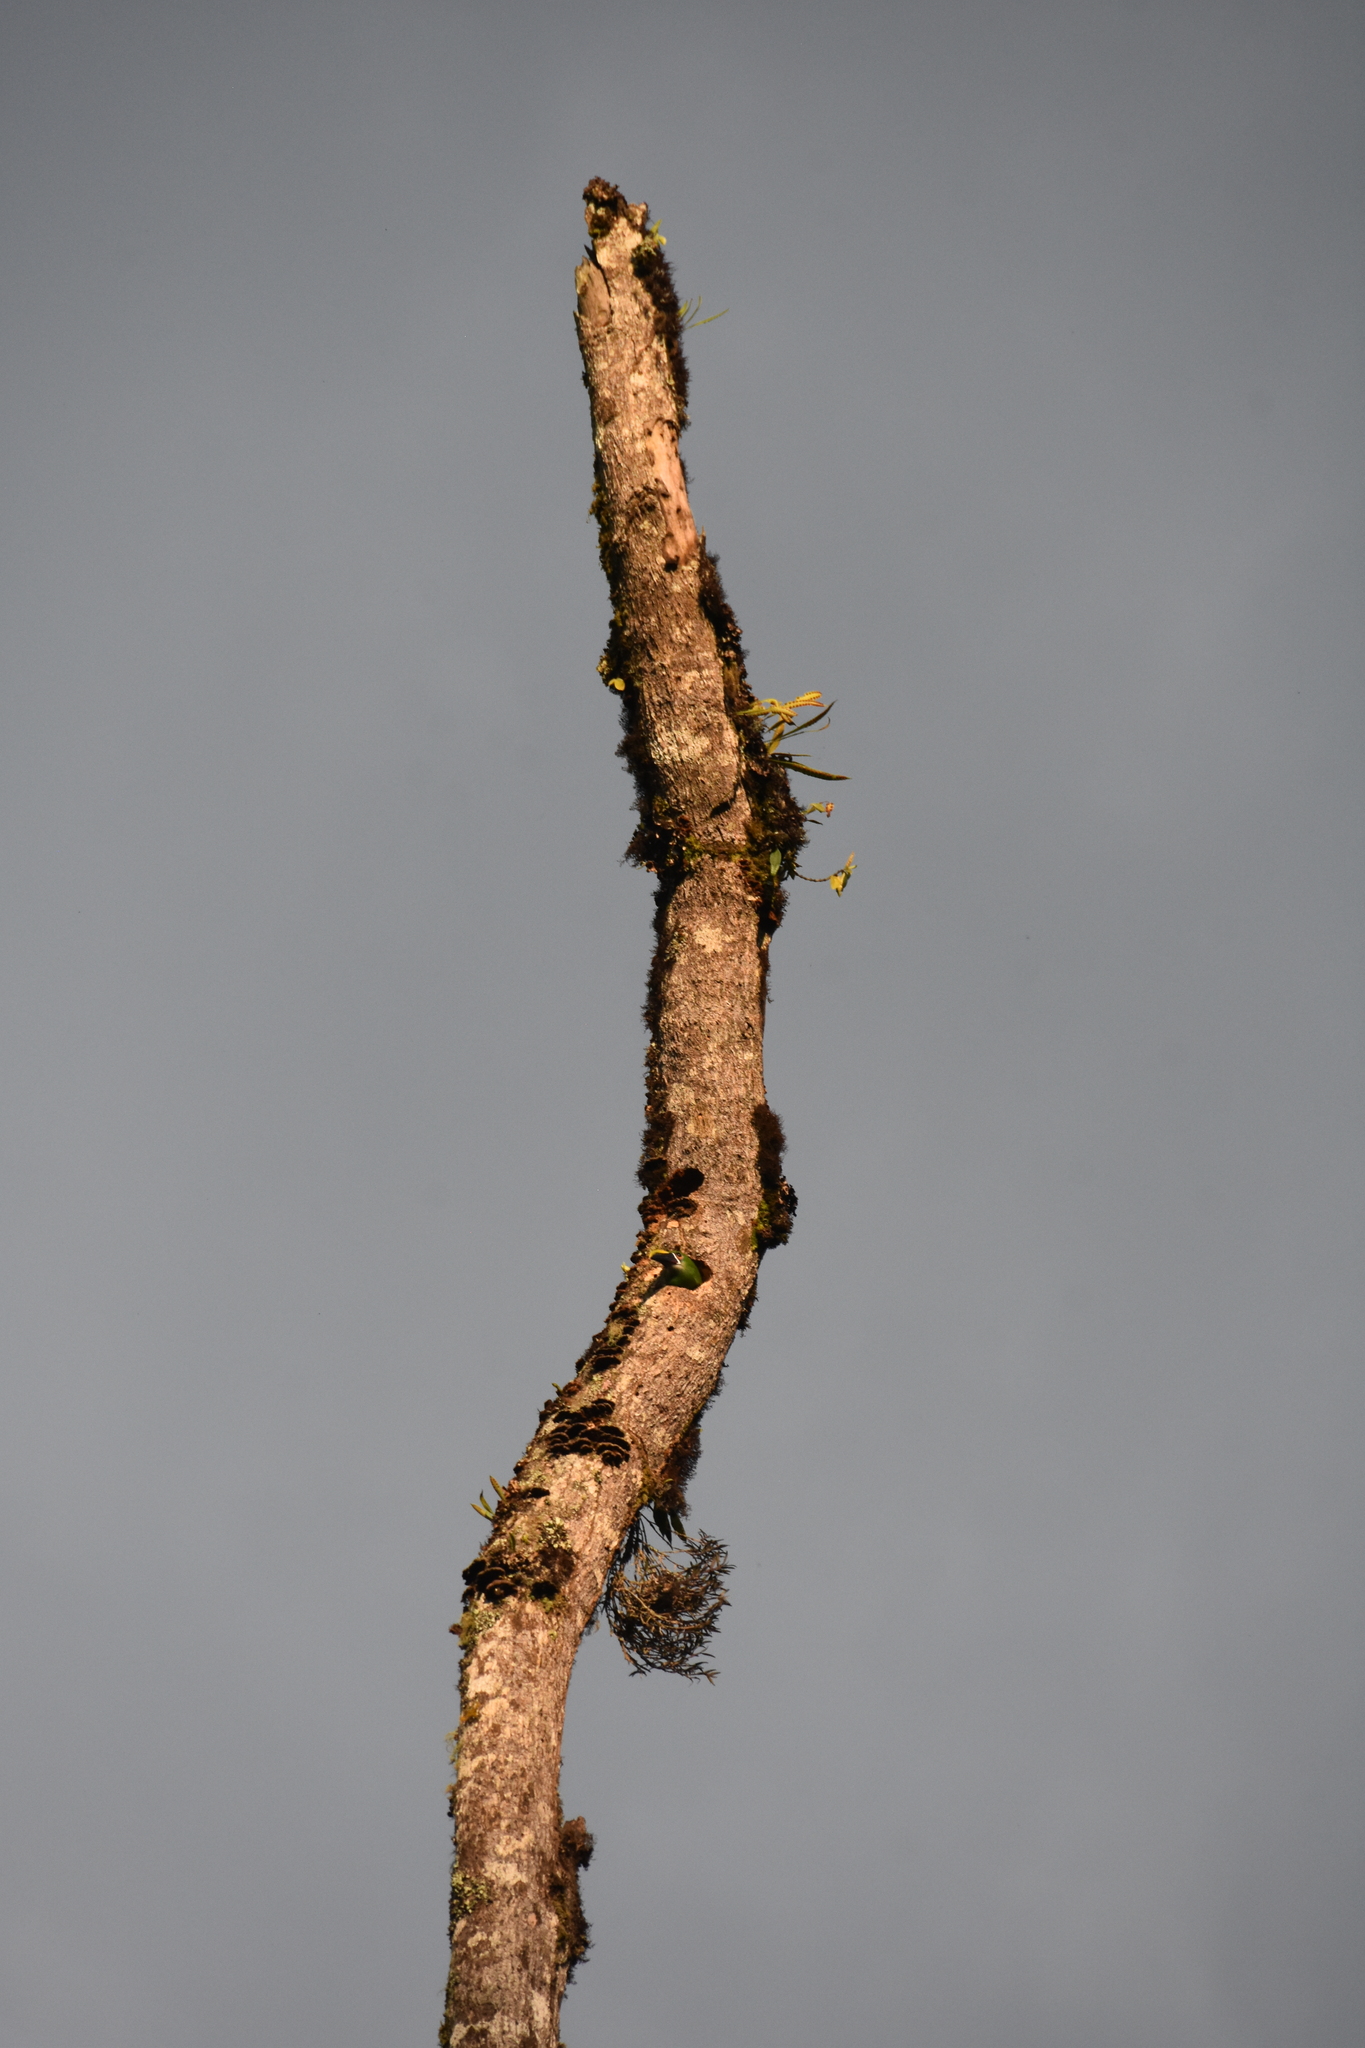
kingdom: Animalia
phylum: Chordata
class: Aves
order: Piciformes
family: Ramphastidae
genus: Aulacorhynchus
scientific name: Aulacorhynchus albivitta
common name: White-throated toucanet
